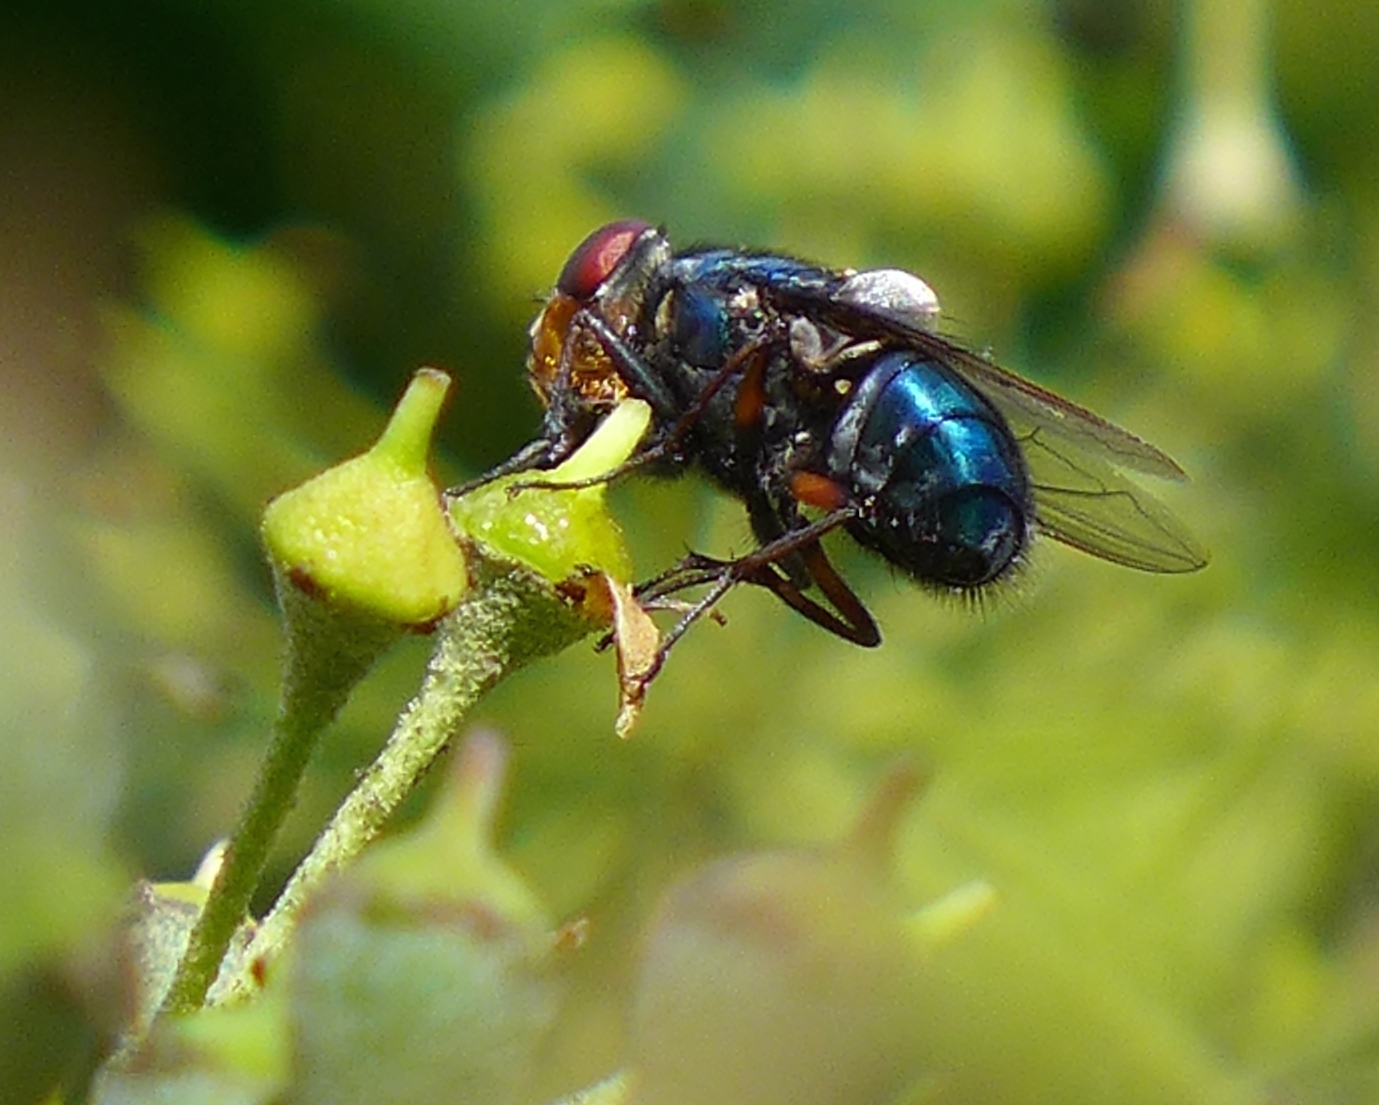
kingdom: Plantae
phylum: Tracheophyta
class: Magnoliopsida
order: Apiales
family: Araliaceae
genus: Hedera
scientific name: Hedera helix
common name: Ivy
